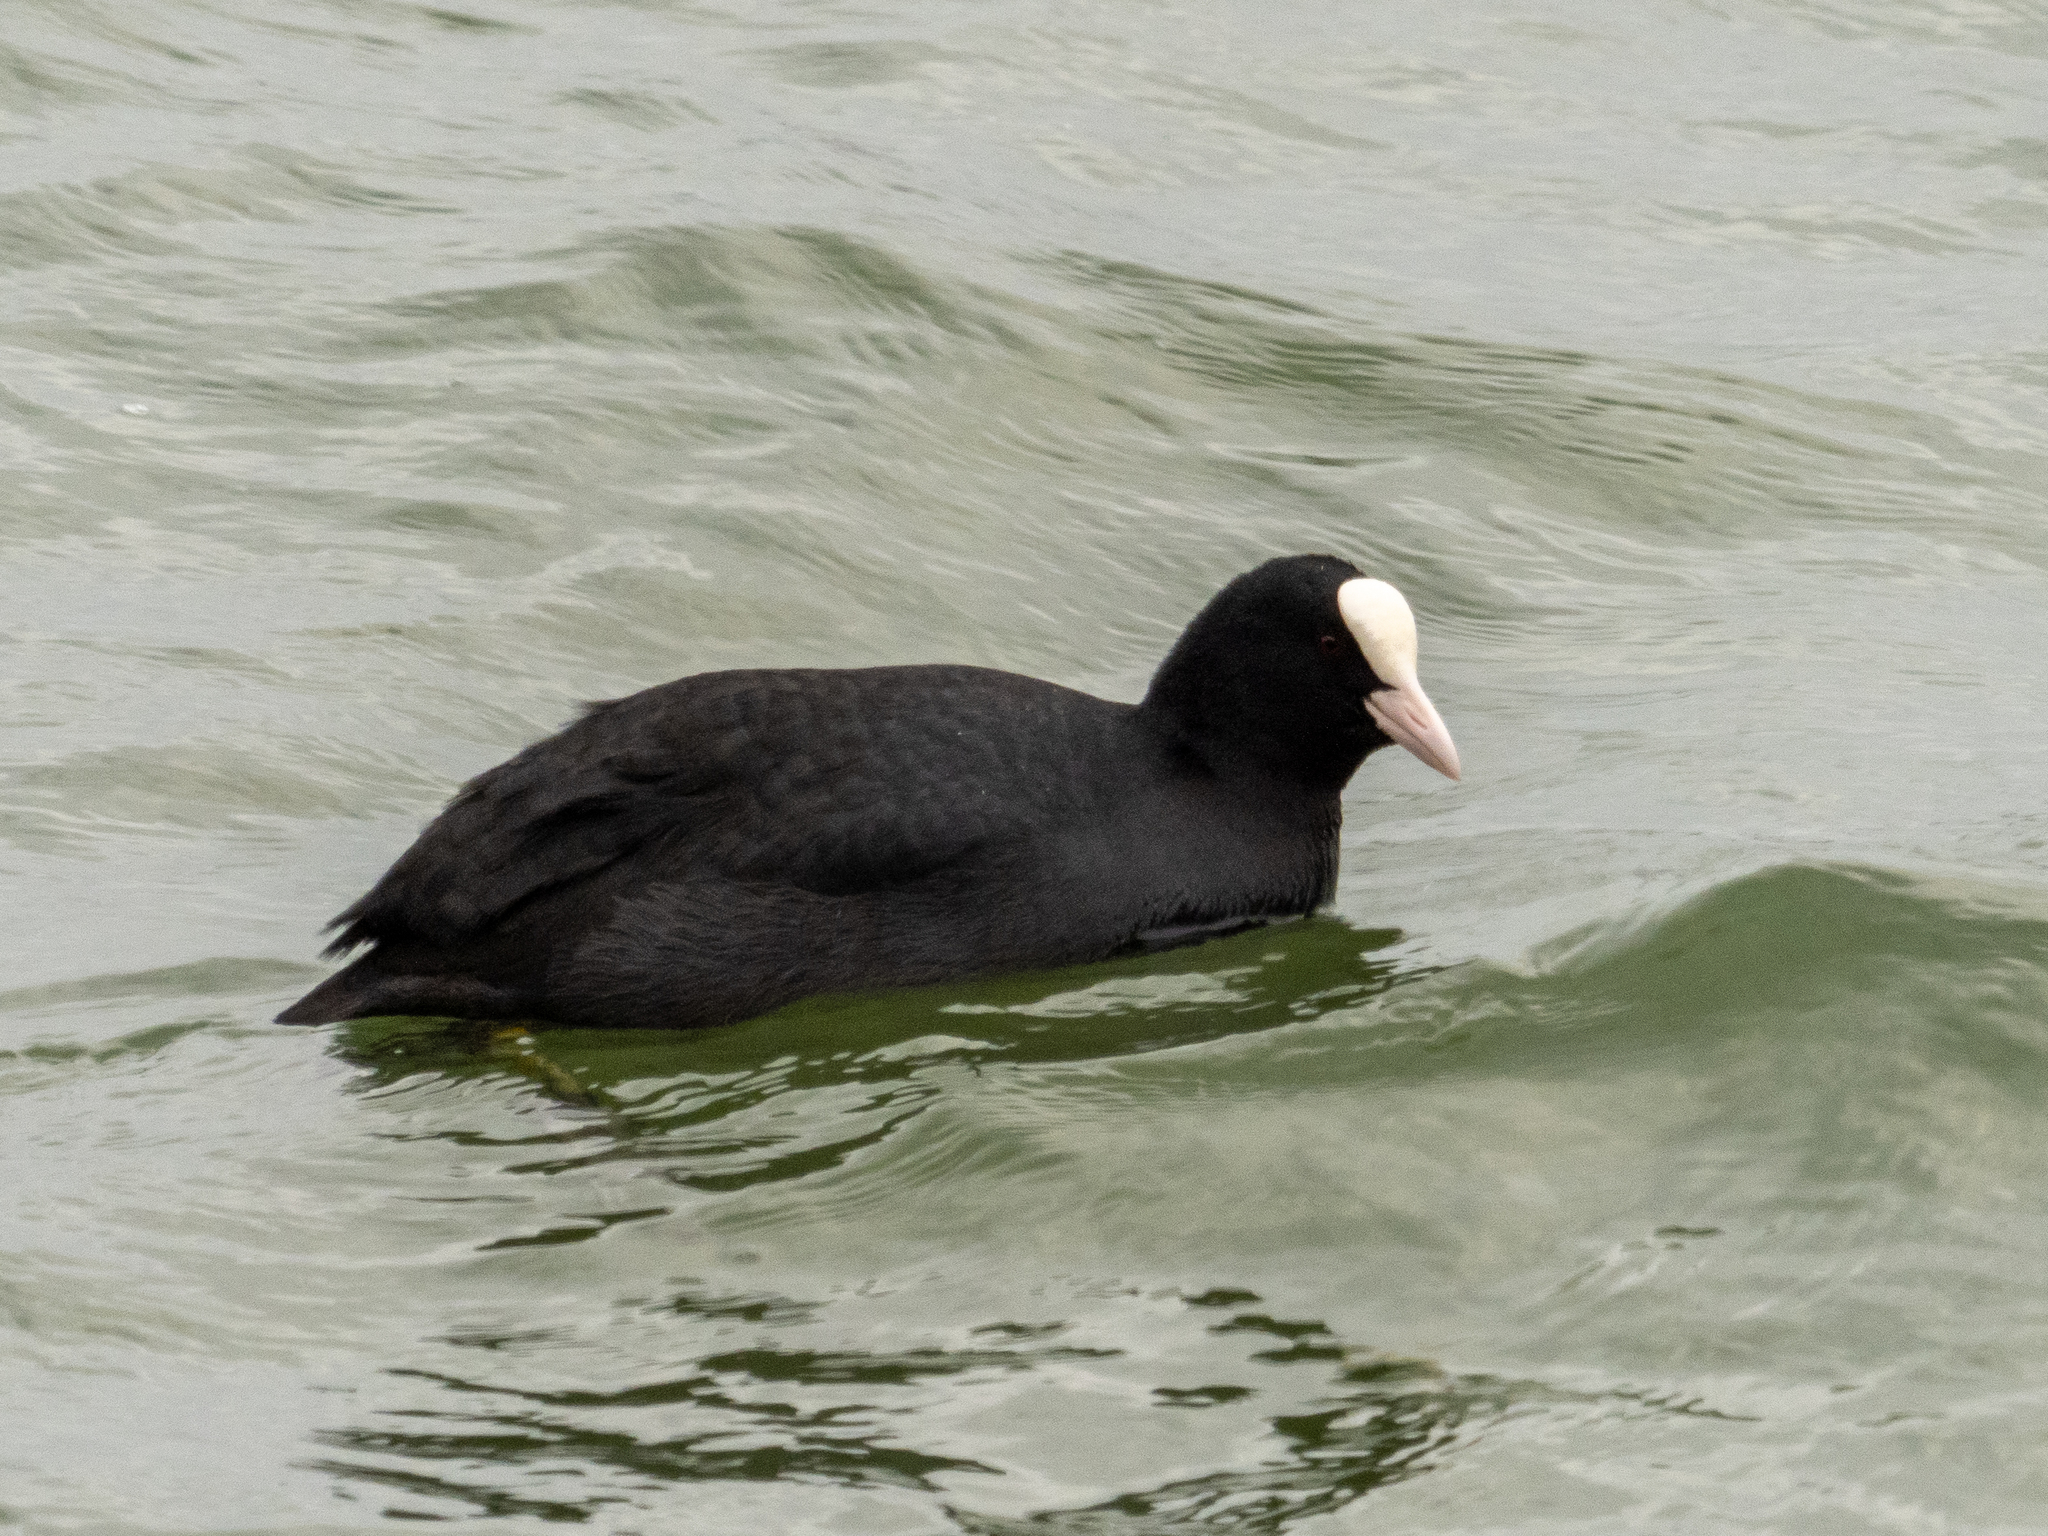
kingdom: Animalia
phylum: Chordata
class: Aves
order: Gruiformes
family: Rallidae
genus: Fulica
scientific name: Fulica atra
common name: Eurasian coot
